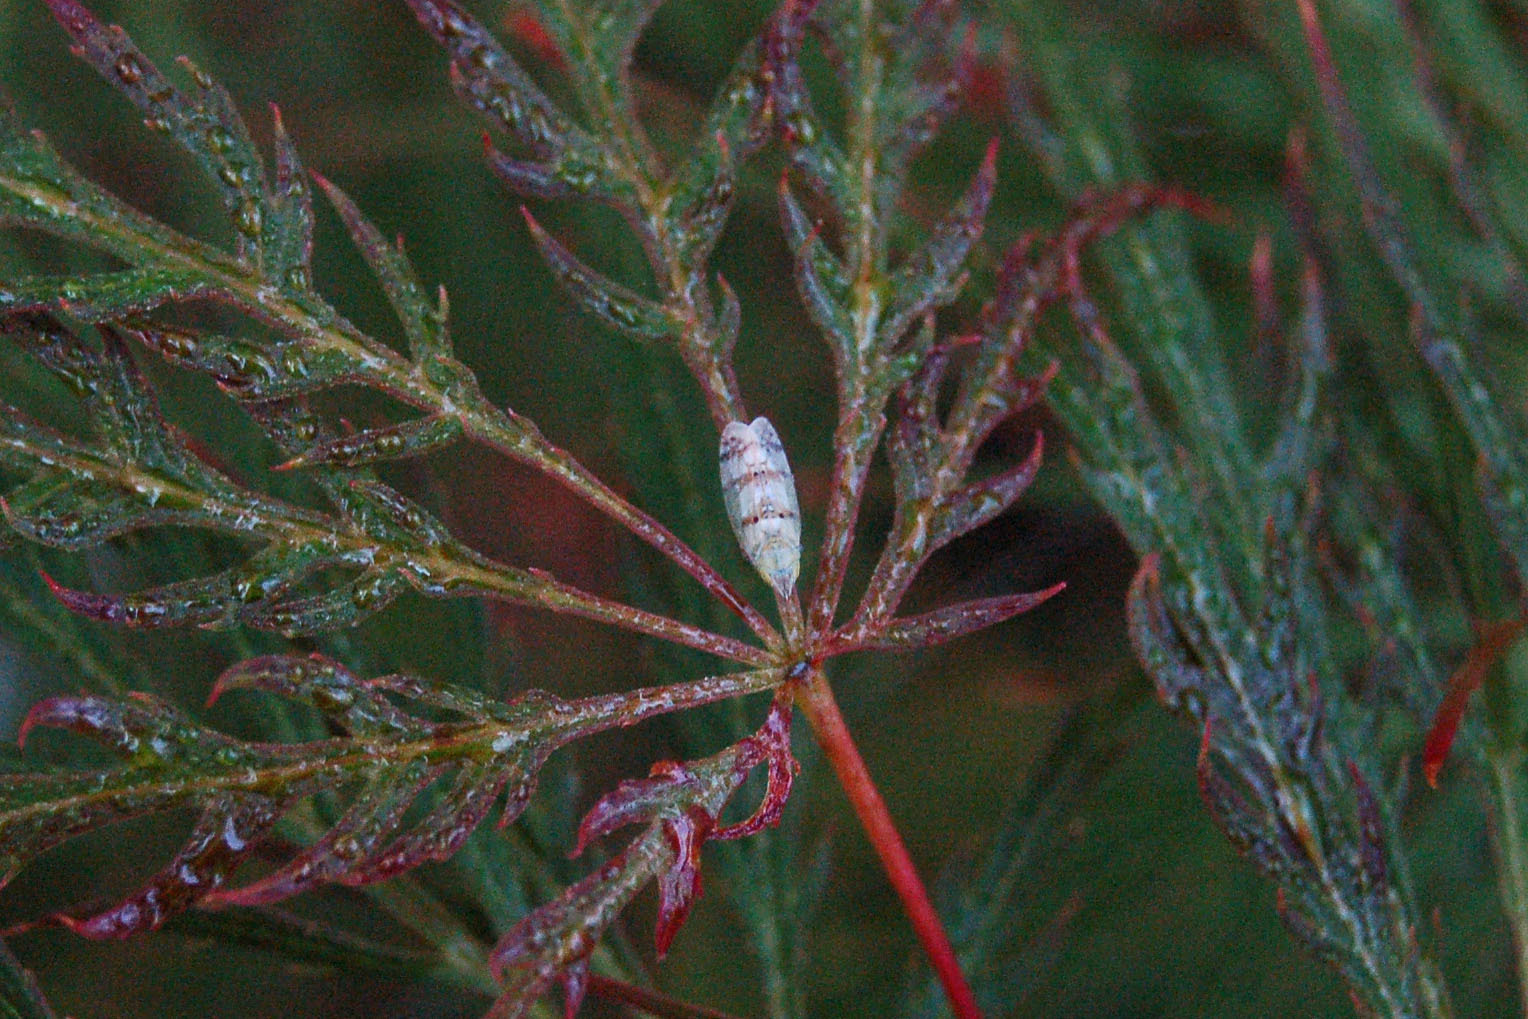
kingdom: Animalia
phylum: Arthropoda
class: Insecta
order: Hemiptera
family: Cicadellidae
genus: Japananus
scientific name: Japananus hyalinus
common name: The japanese maple leafhopper
